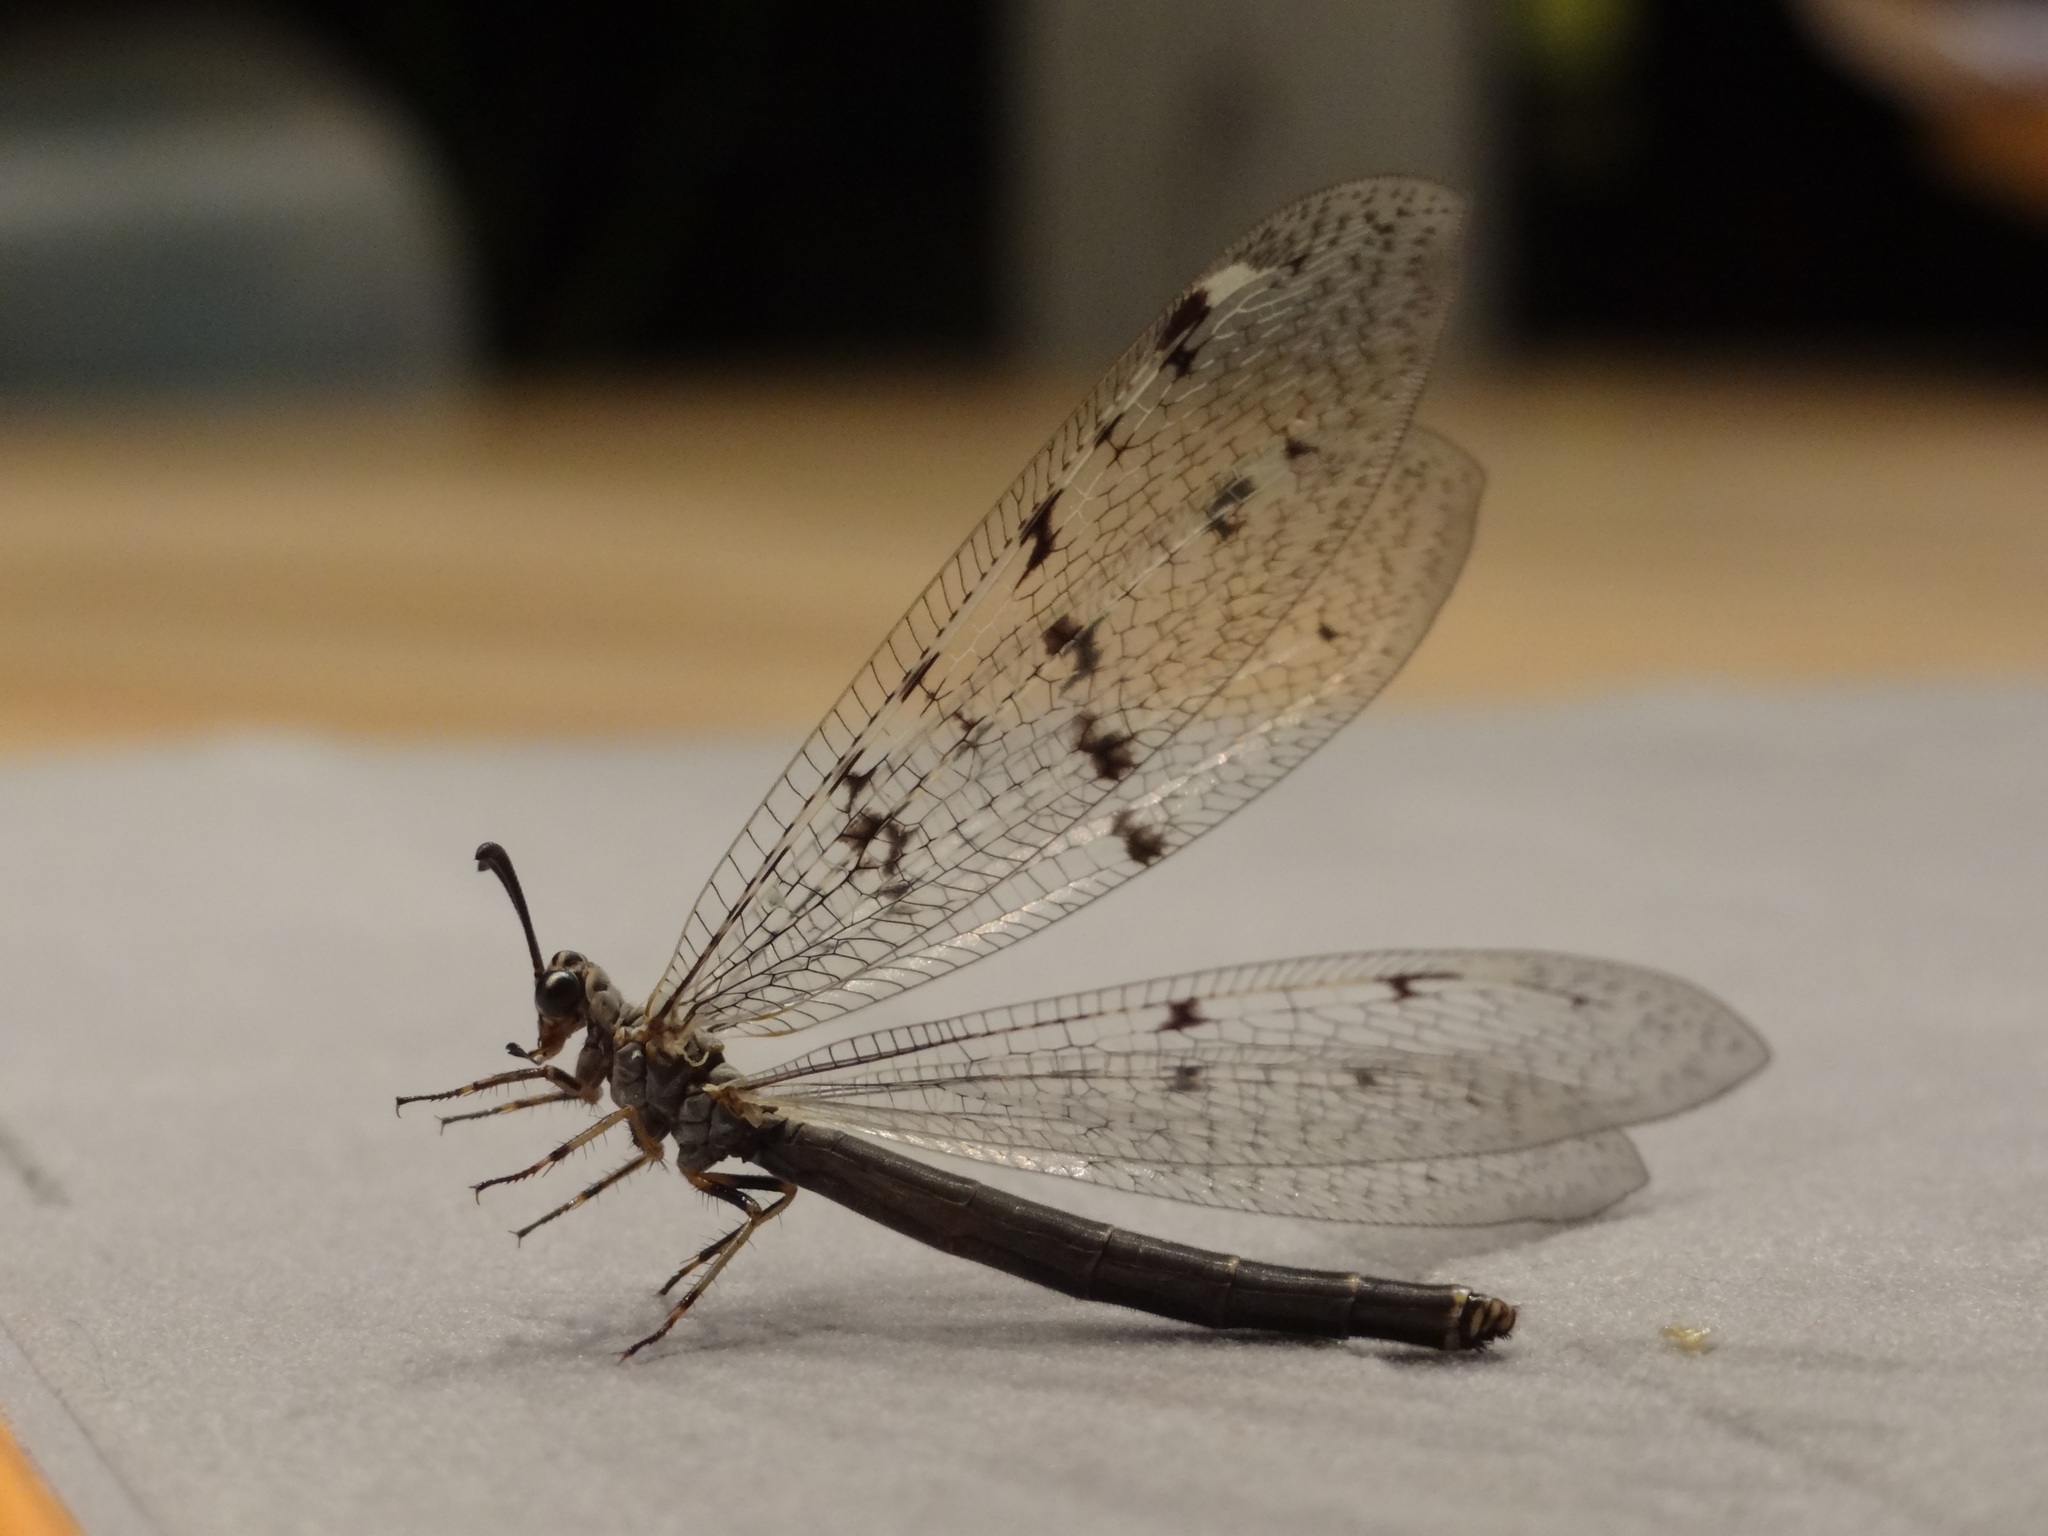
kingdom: Animalia
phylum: Arthropoda
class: Insecta
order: Neuroptera
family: Myrmeleontidae
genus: Distoleon
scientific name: Distoleon tetragrammicus
